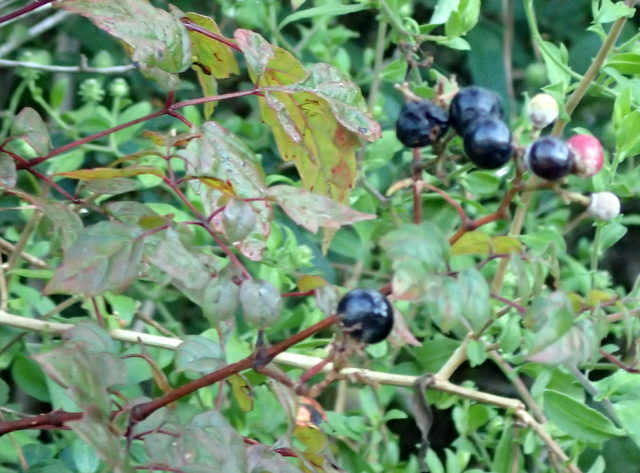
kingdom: Plantae
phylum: Tracheophyta
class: Magnoliopsida
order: Vitales
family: Vitaceae
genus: Nekemias
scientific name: Nekemias arborea
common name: Peppervine
